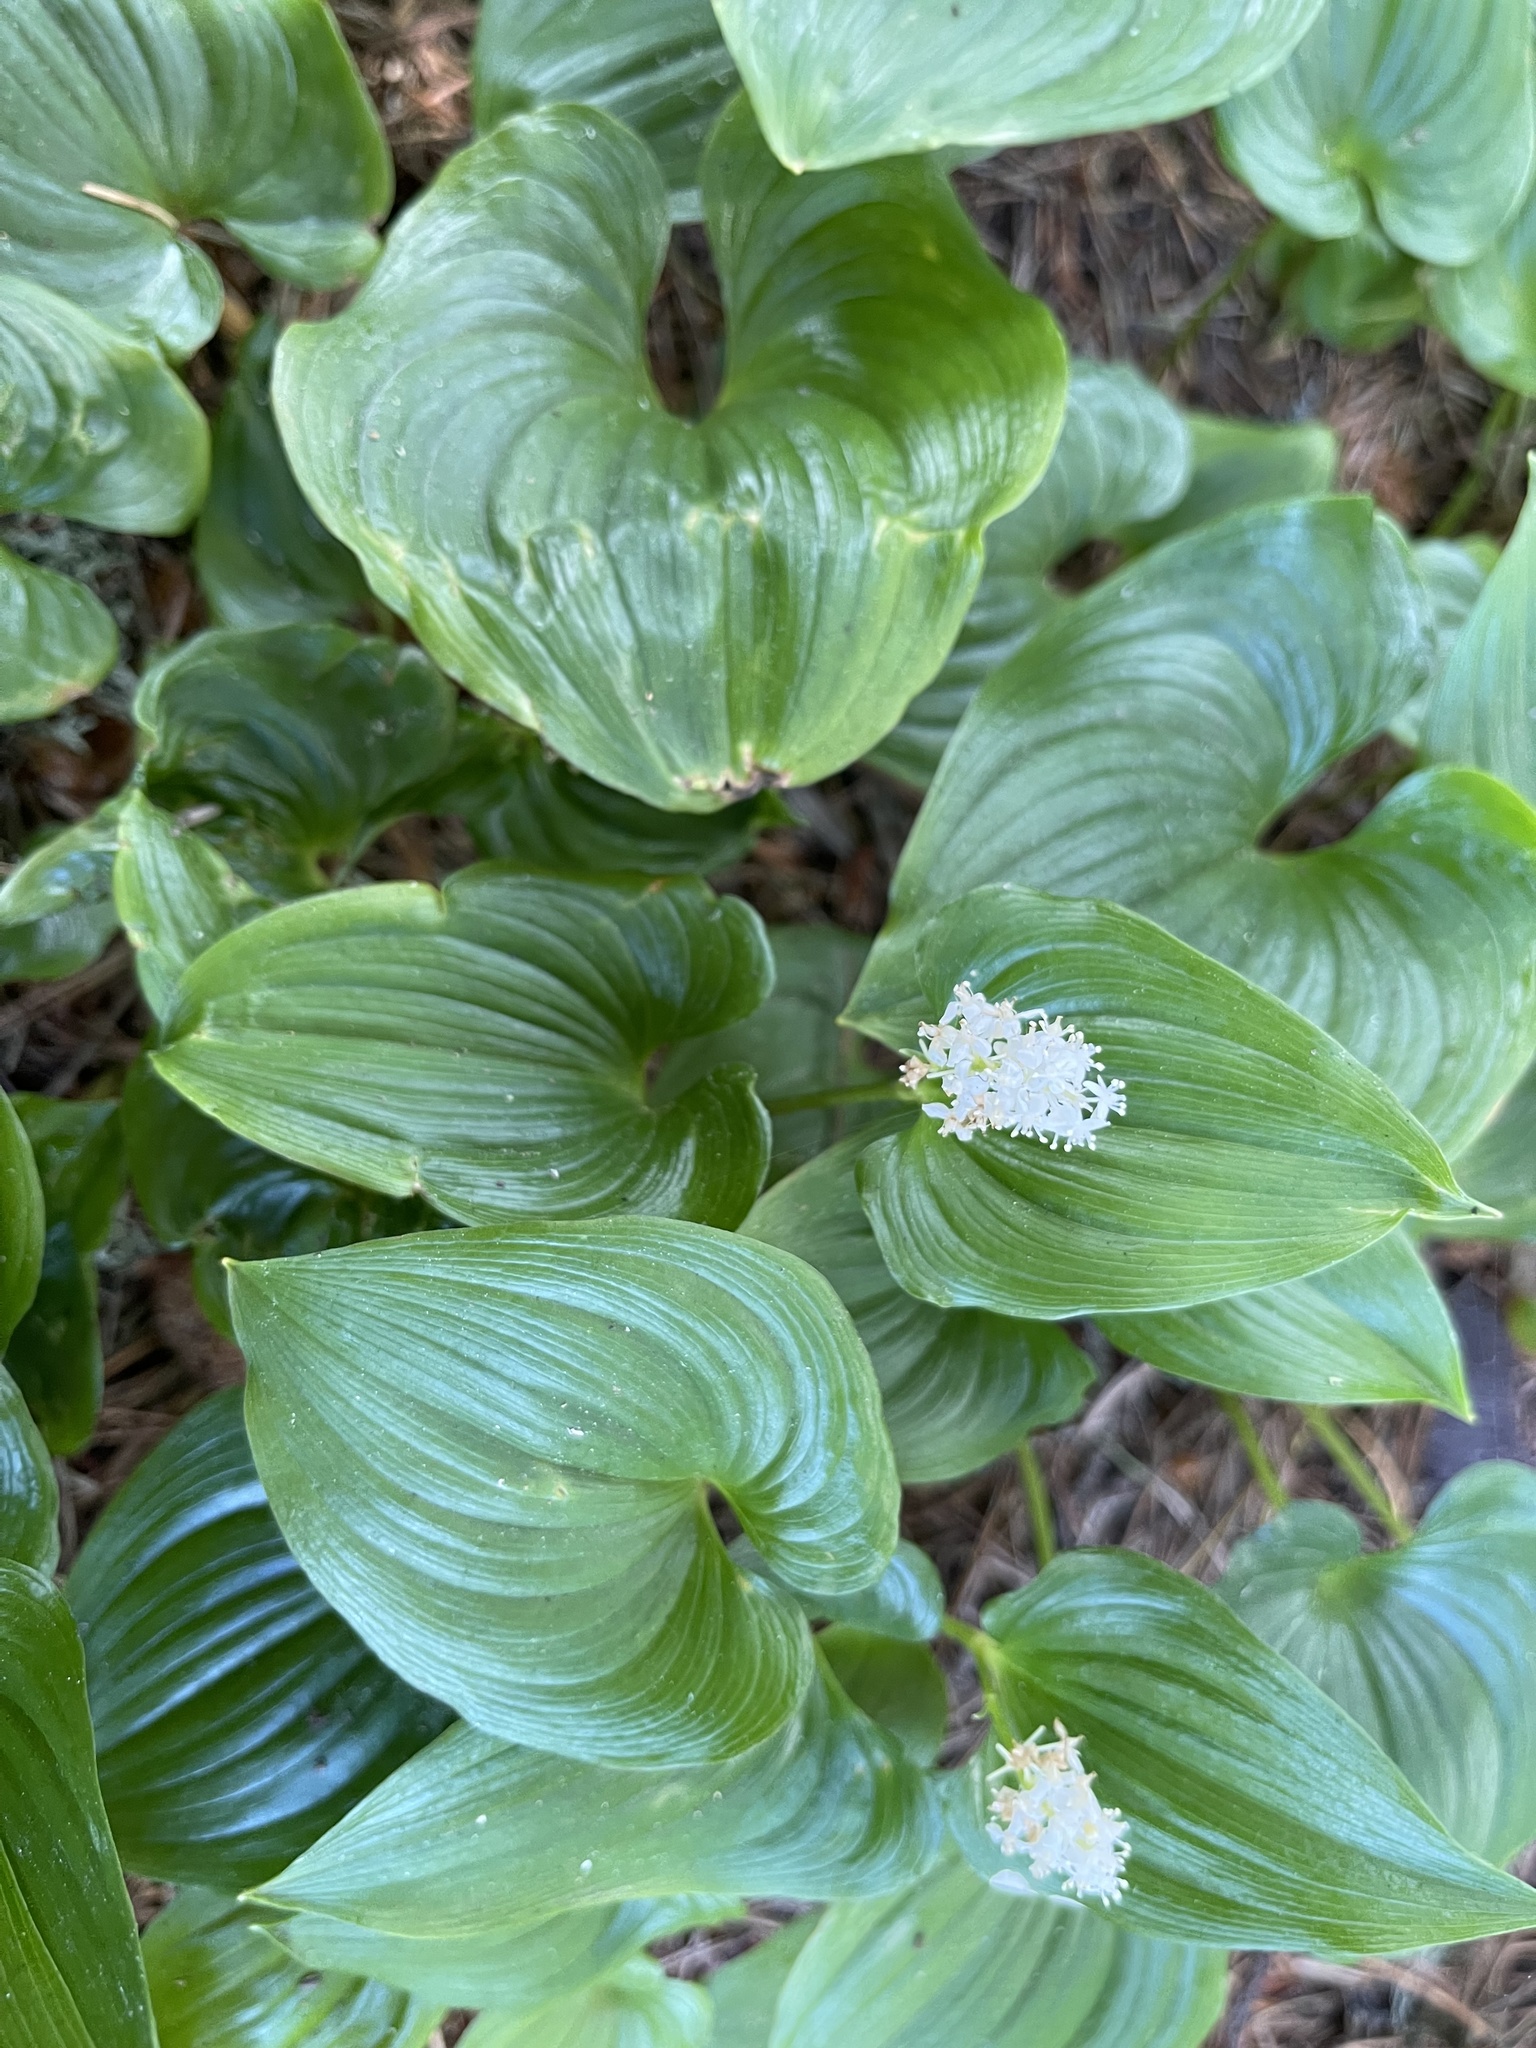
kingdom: Plantae
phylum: Tracheophyta
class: Liliopsida
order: Asparagales
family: Asparagaceae
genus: Maianthemum
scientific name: Maianthemum dilatatum
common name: False lily-of-the-valley
